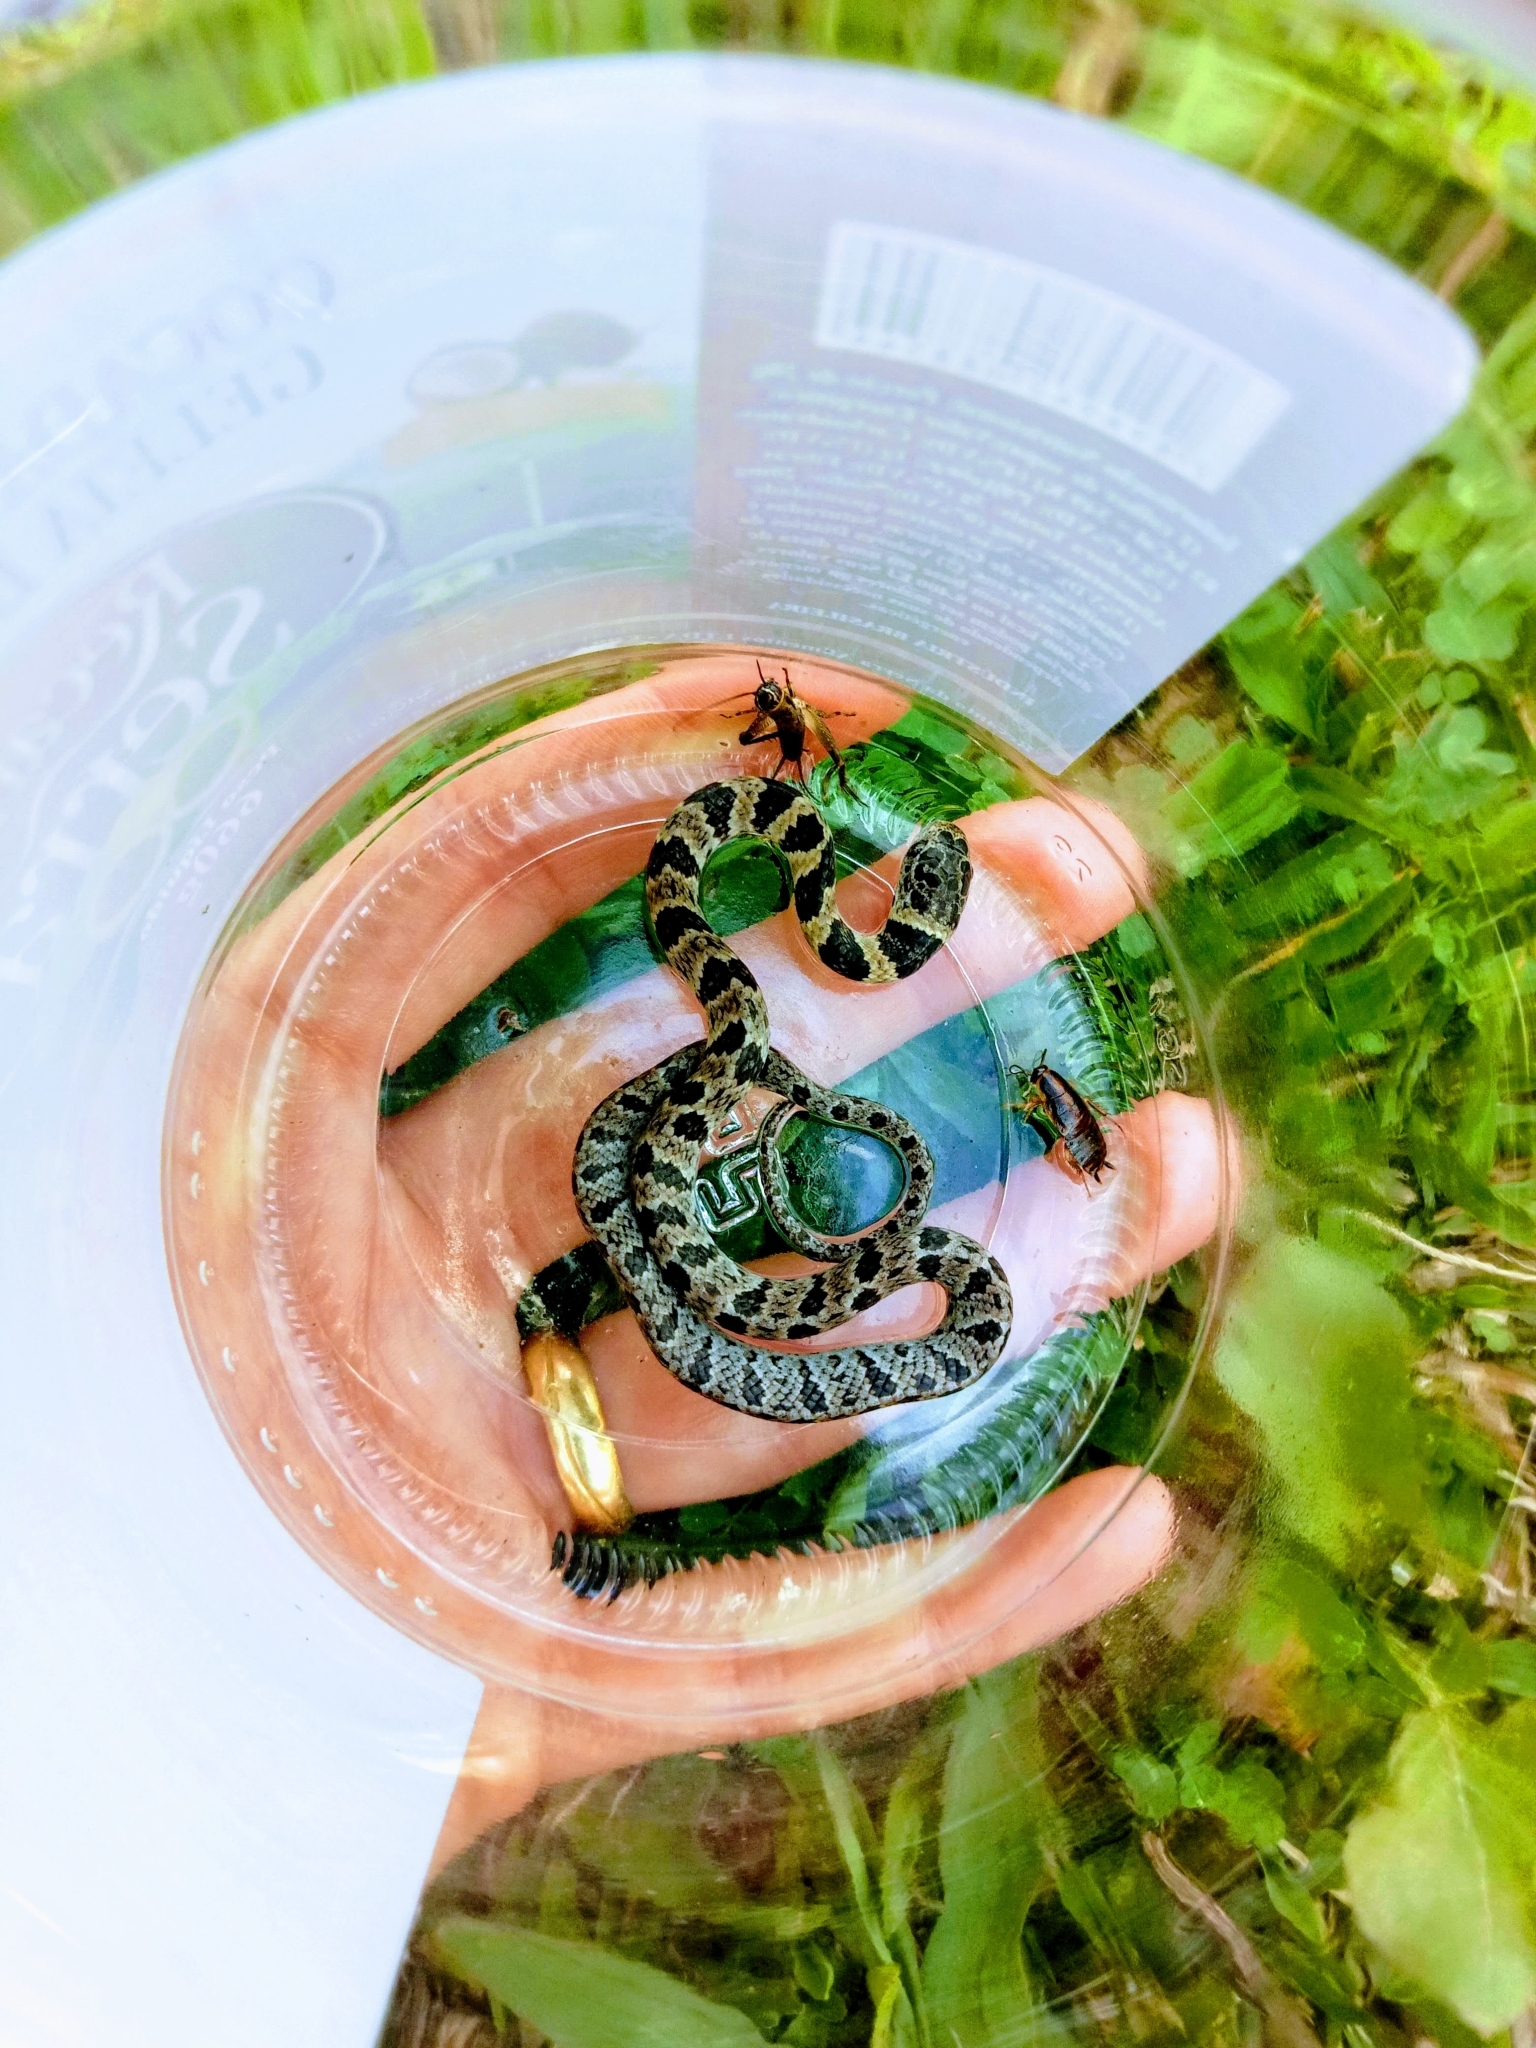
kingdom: Animalia
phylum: Chordata
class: Squamata
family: Colubridae
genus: Dipsas
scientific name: Dipsas neuwiedi
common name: Neuwied's tree snake
